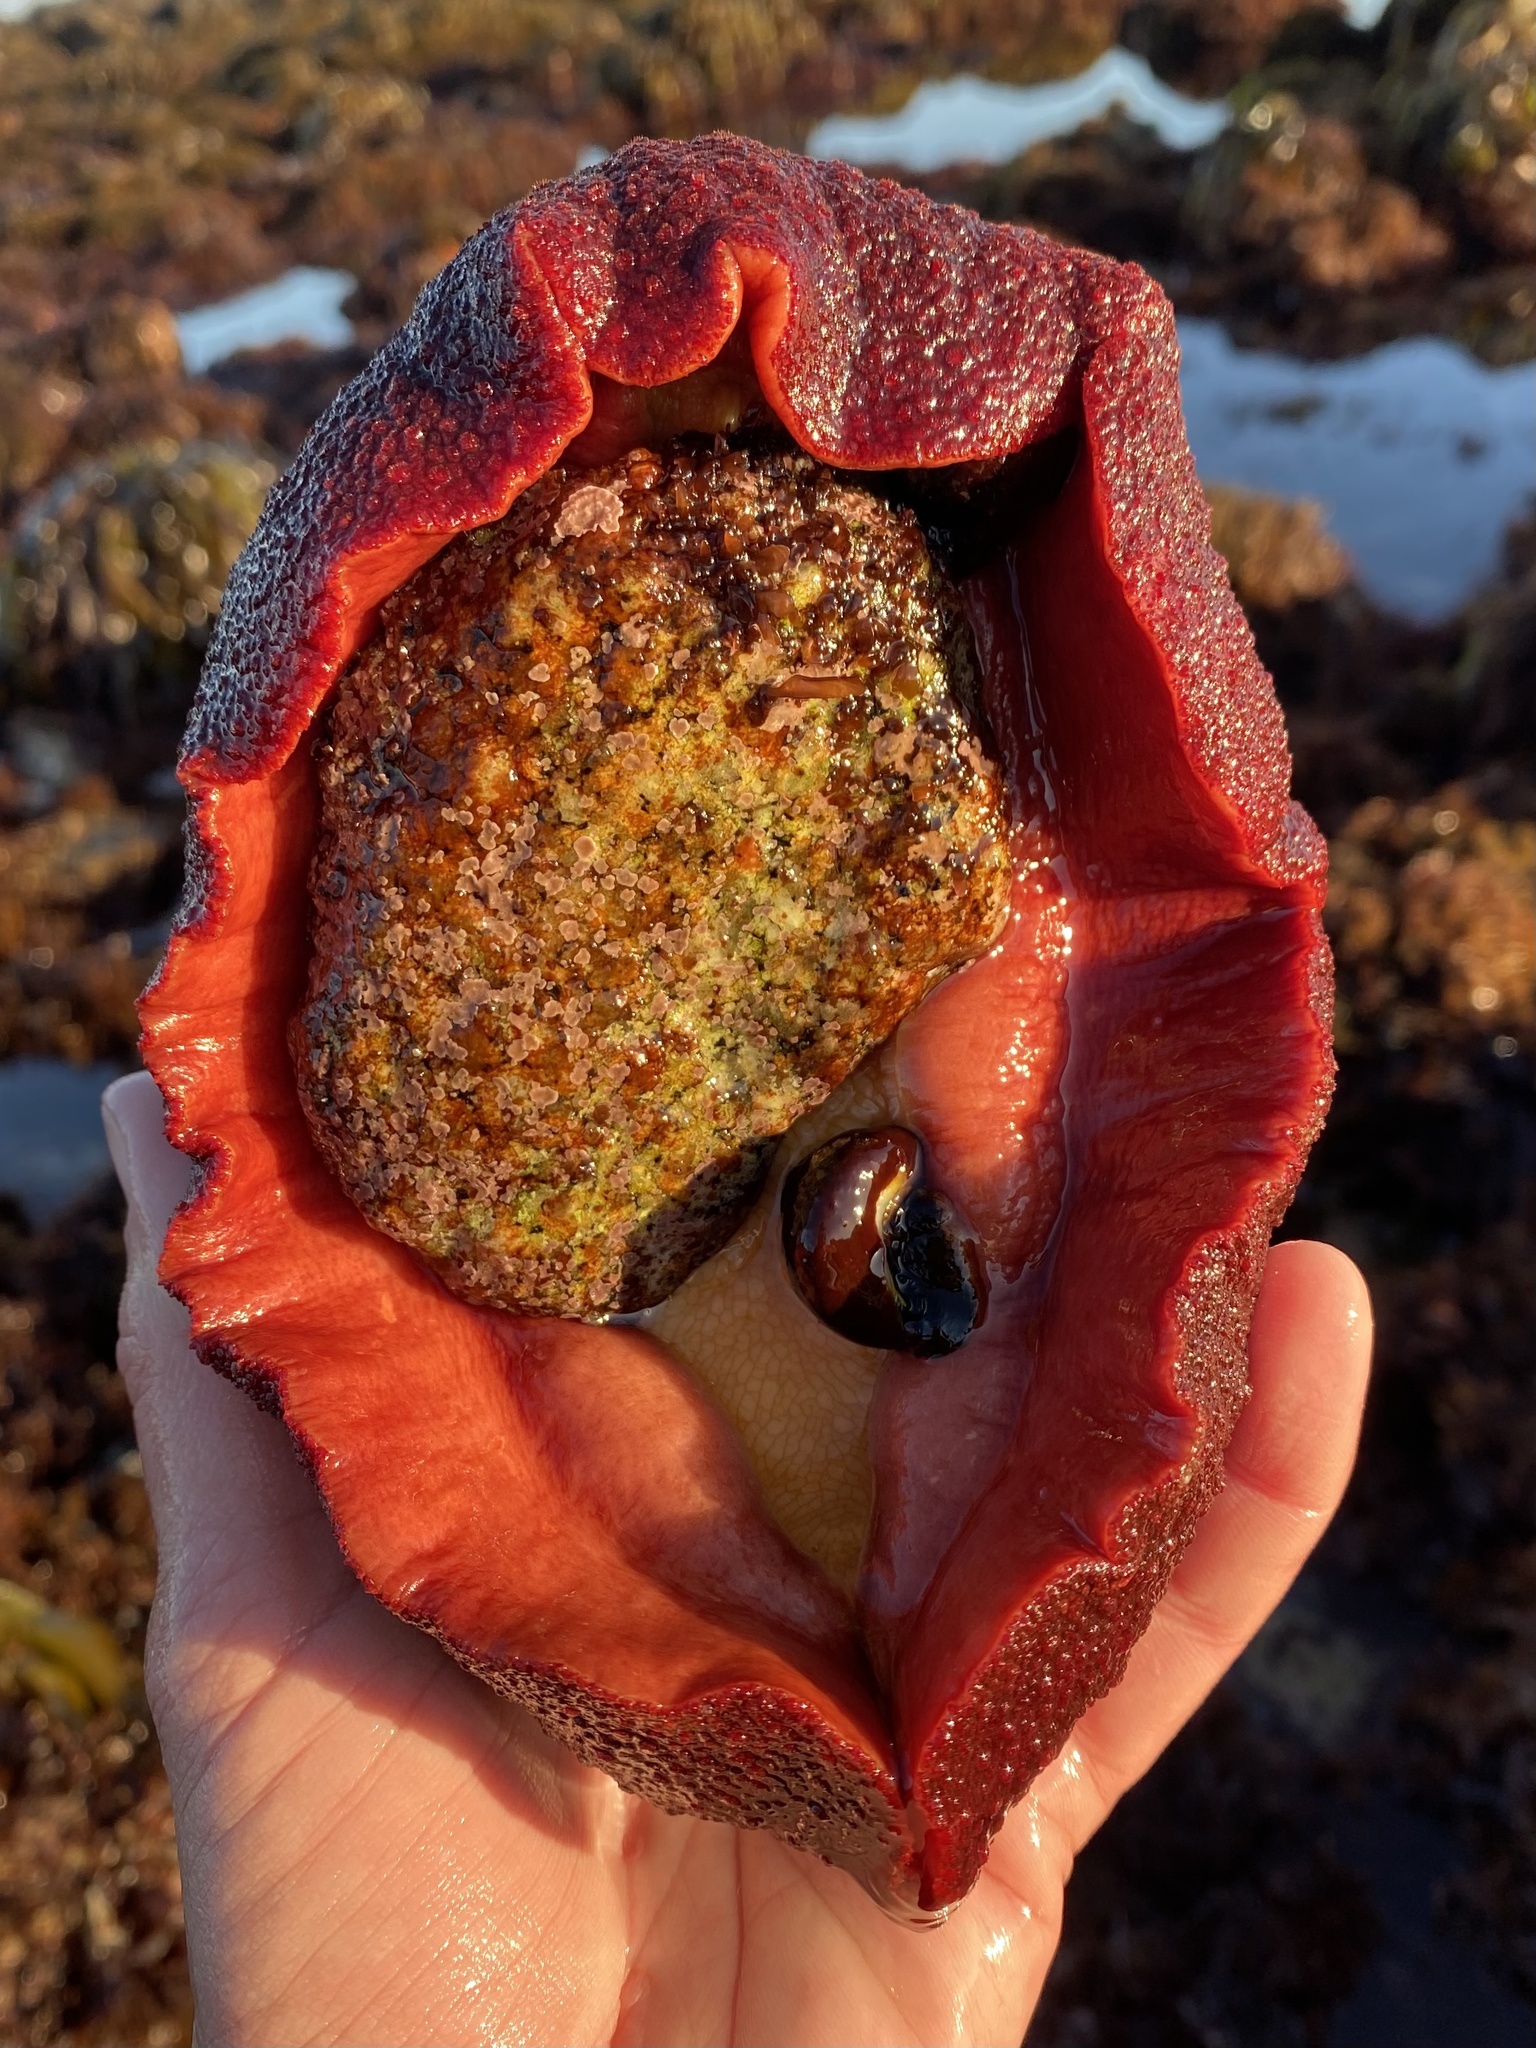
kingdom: Animalia
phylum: Mollusca
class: Polyplacophora
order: Chitonida
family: Acanthochitonidae
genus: Cryptochiton
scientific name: Cryptochiton stelleri
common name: Giant pacific chiton
